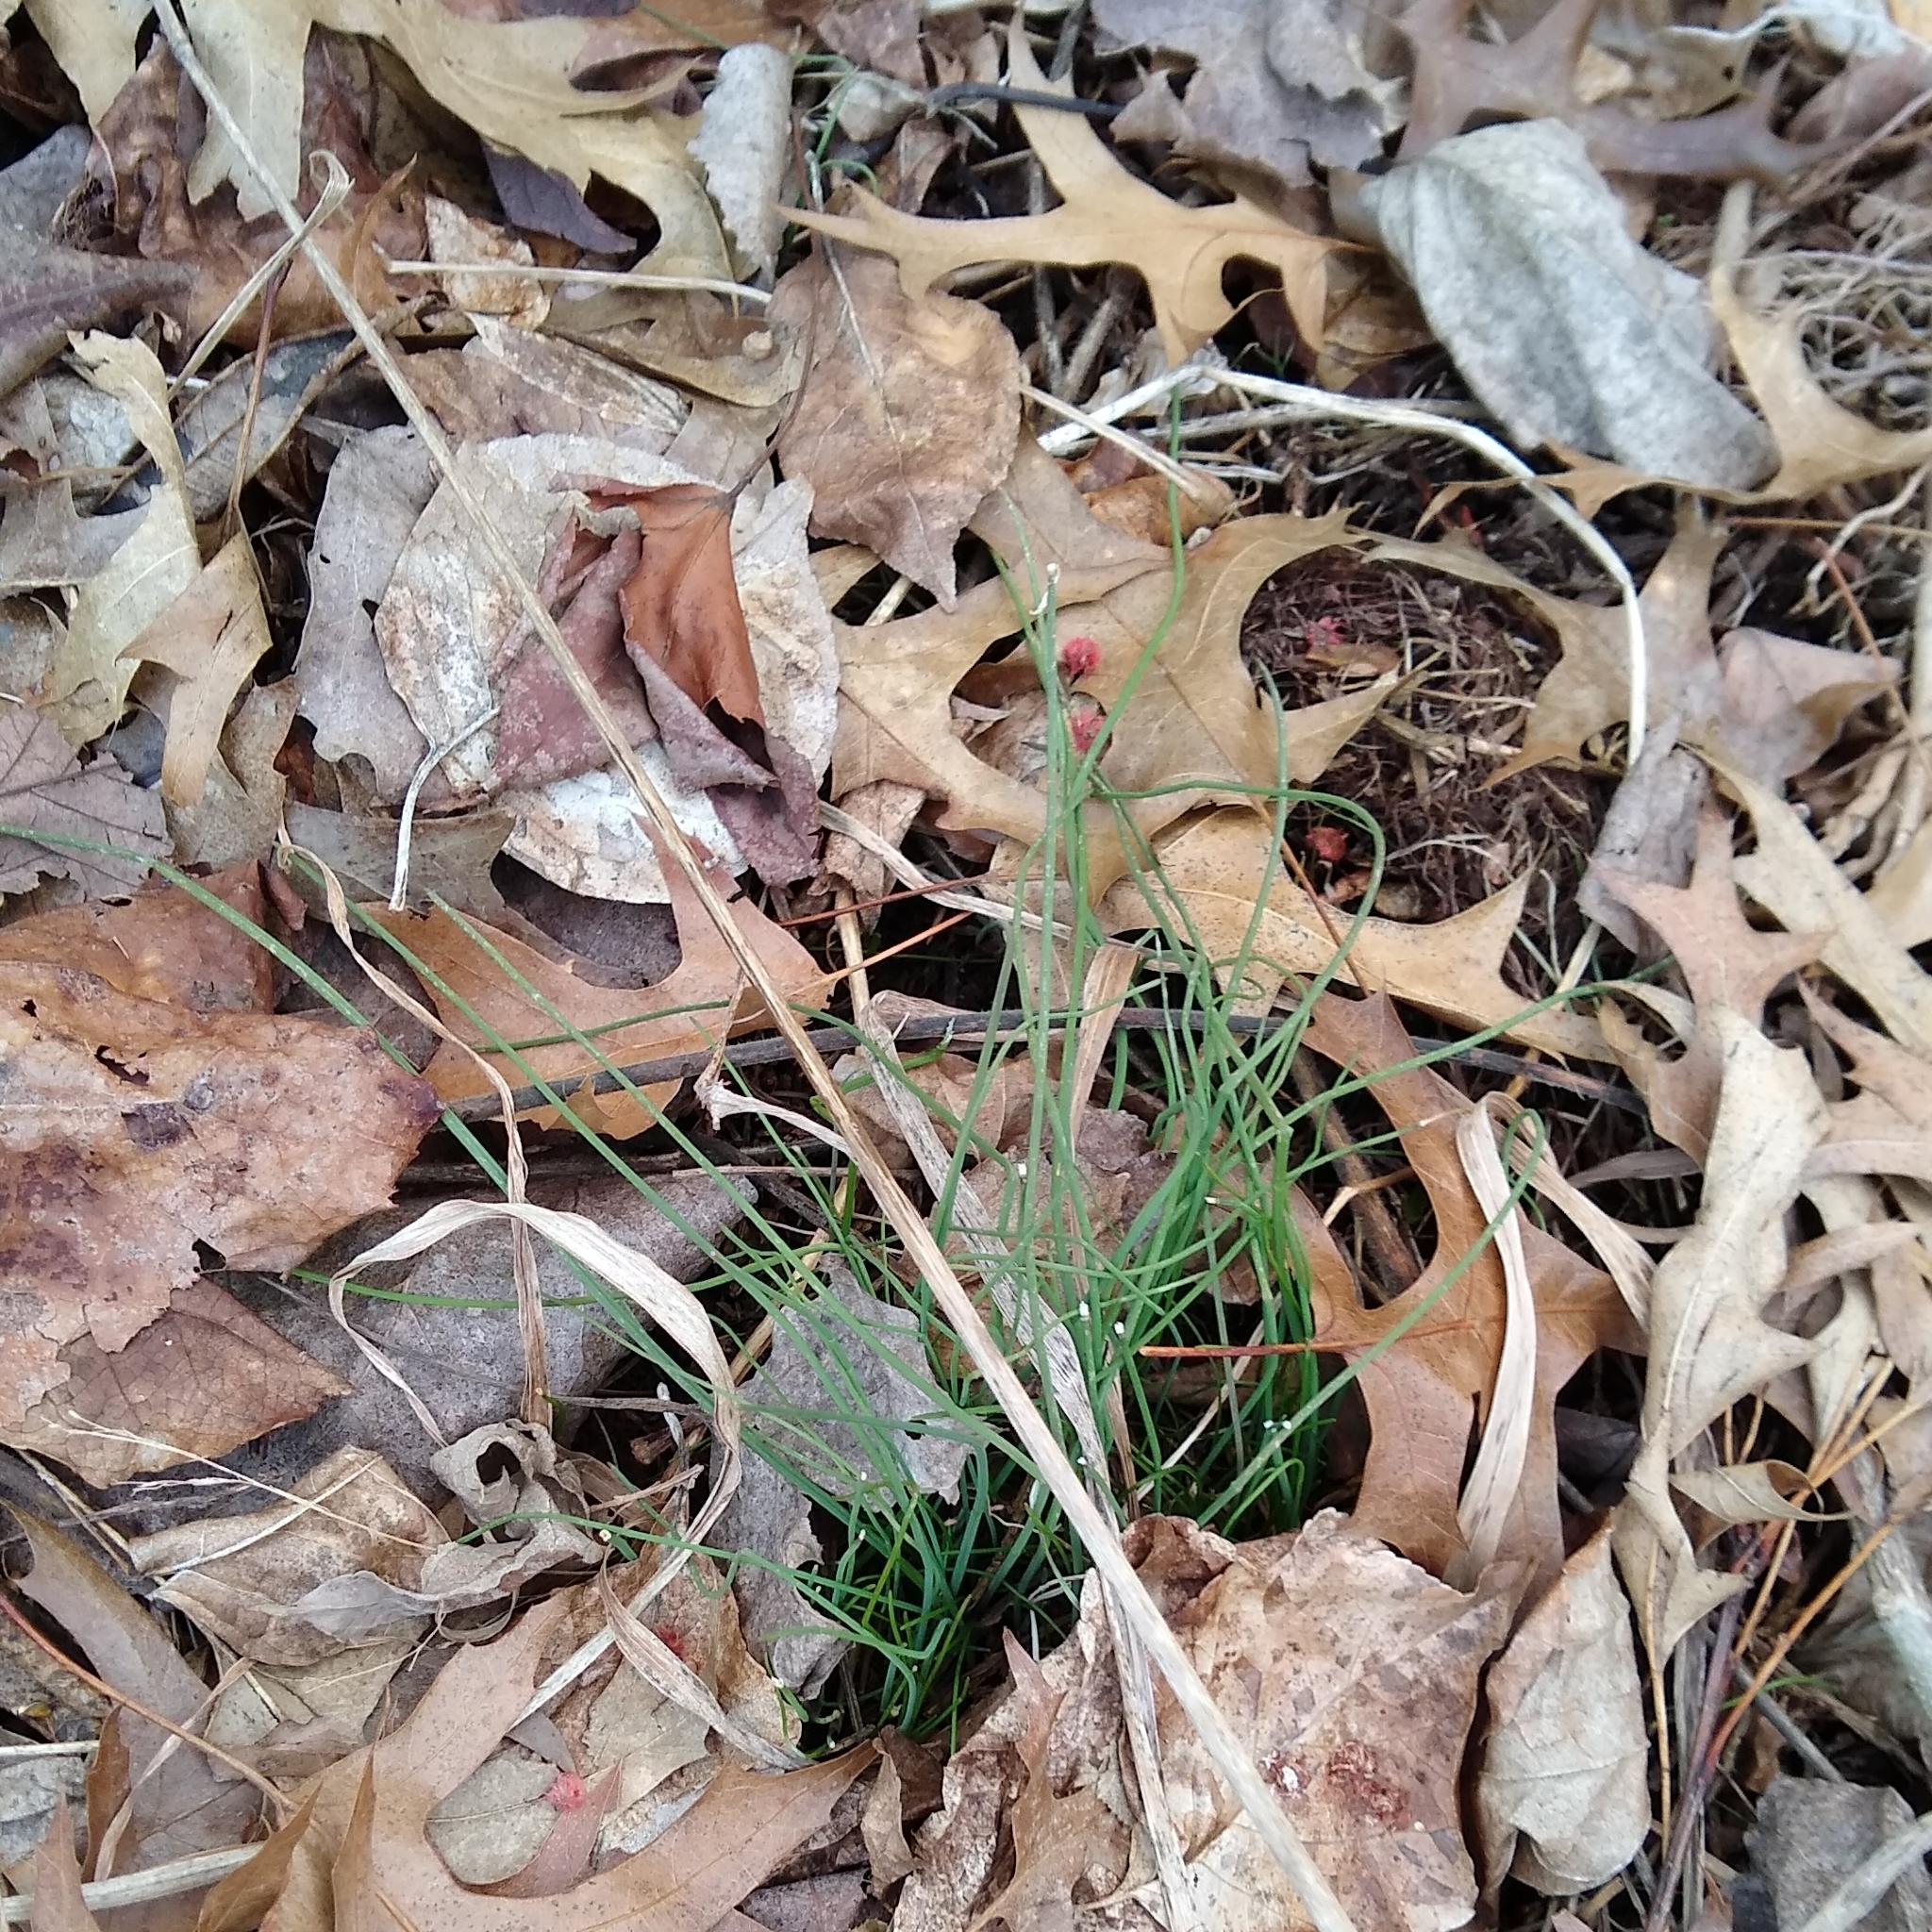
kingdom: Plantae
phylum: Tracheophyta
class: Liliopsida
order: Asparagales
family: Amaryllidaceae
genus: Allium
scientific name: Allium vineale
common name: Crow garlic
